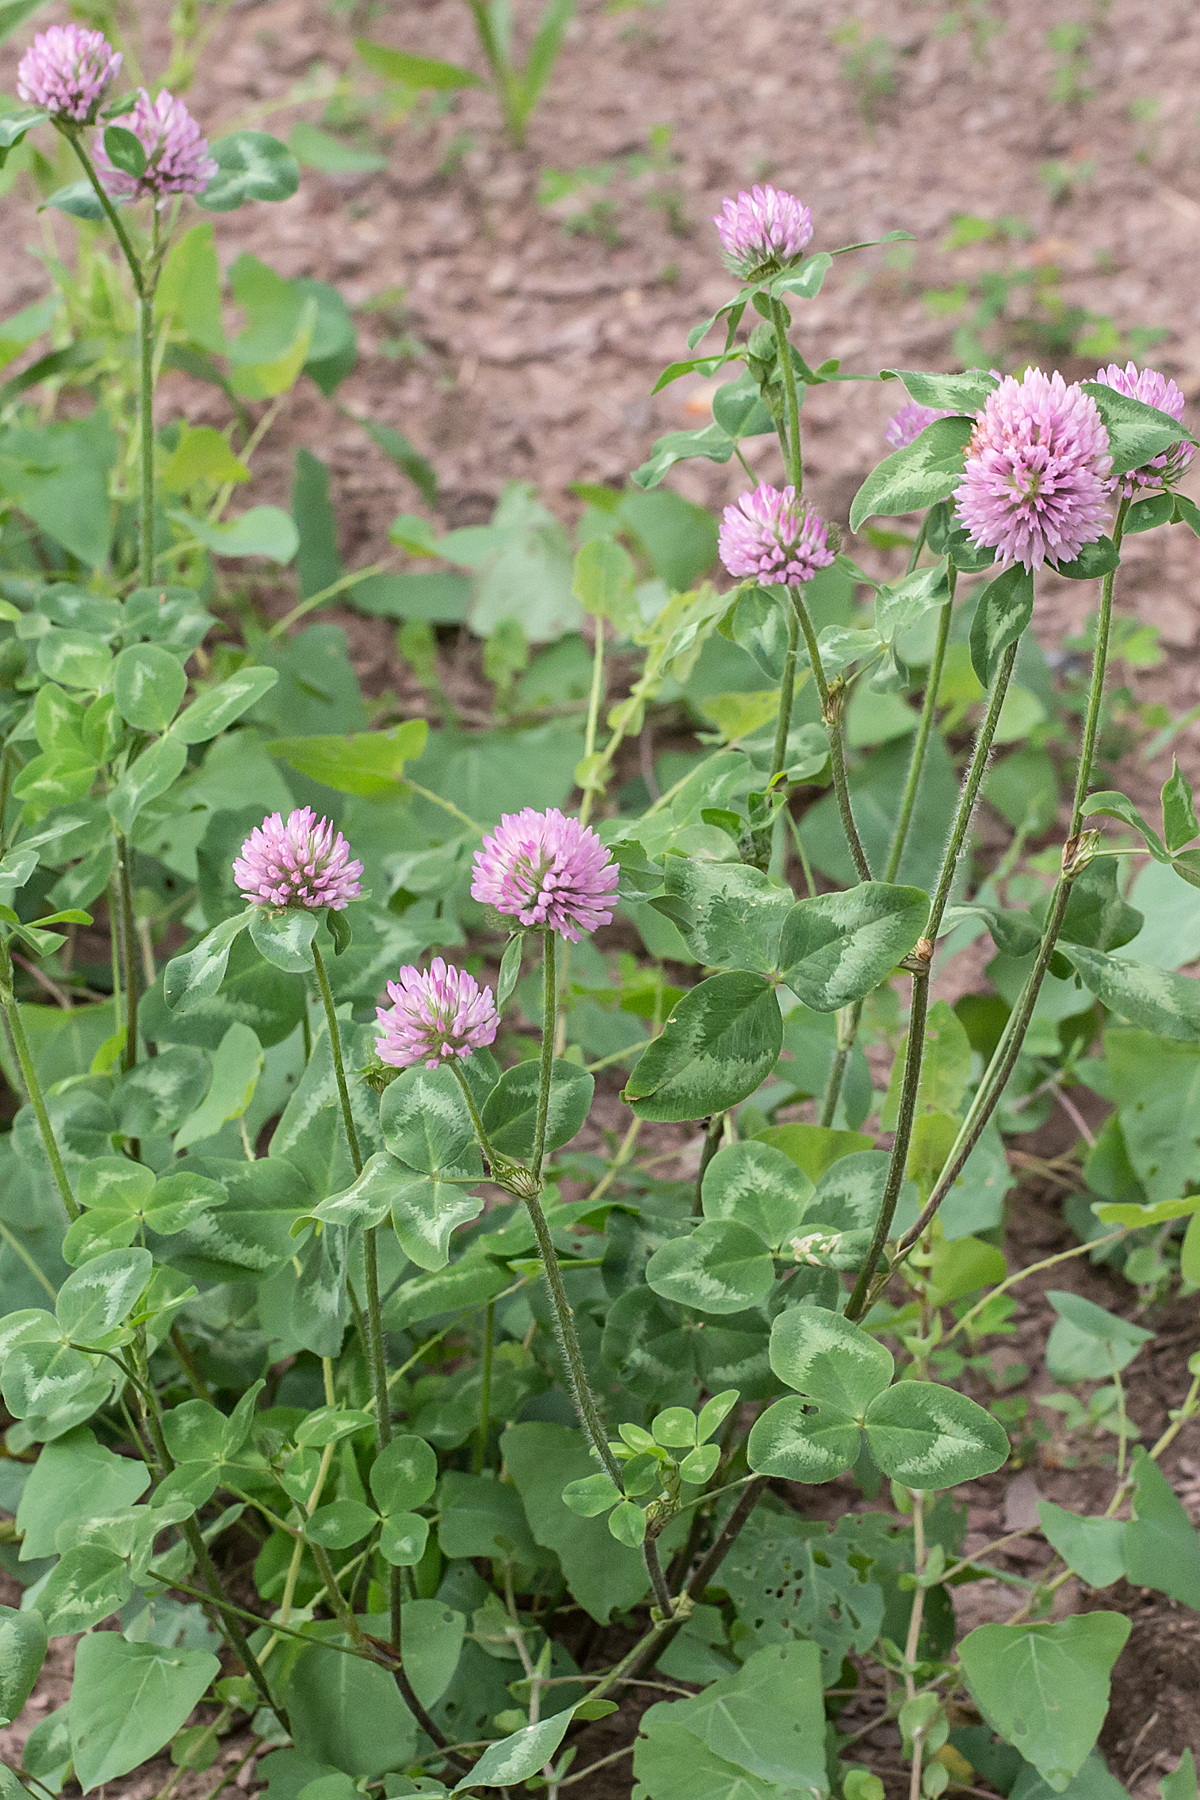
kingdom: Plantae
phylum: Tracheophyta
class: Magnoliopsida
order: Fabales
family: Fabaceae
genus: Trifolium
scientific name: Trifolium pratense
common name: Red clover
